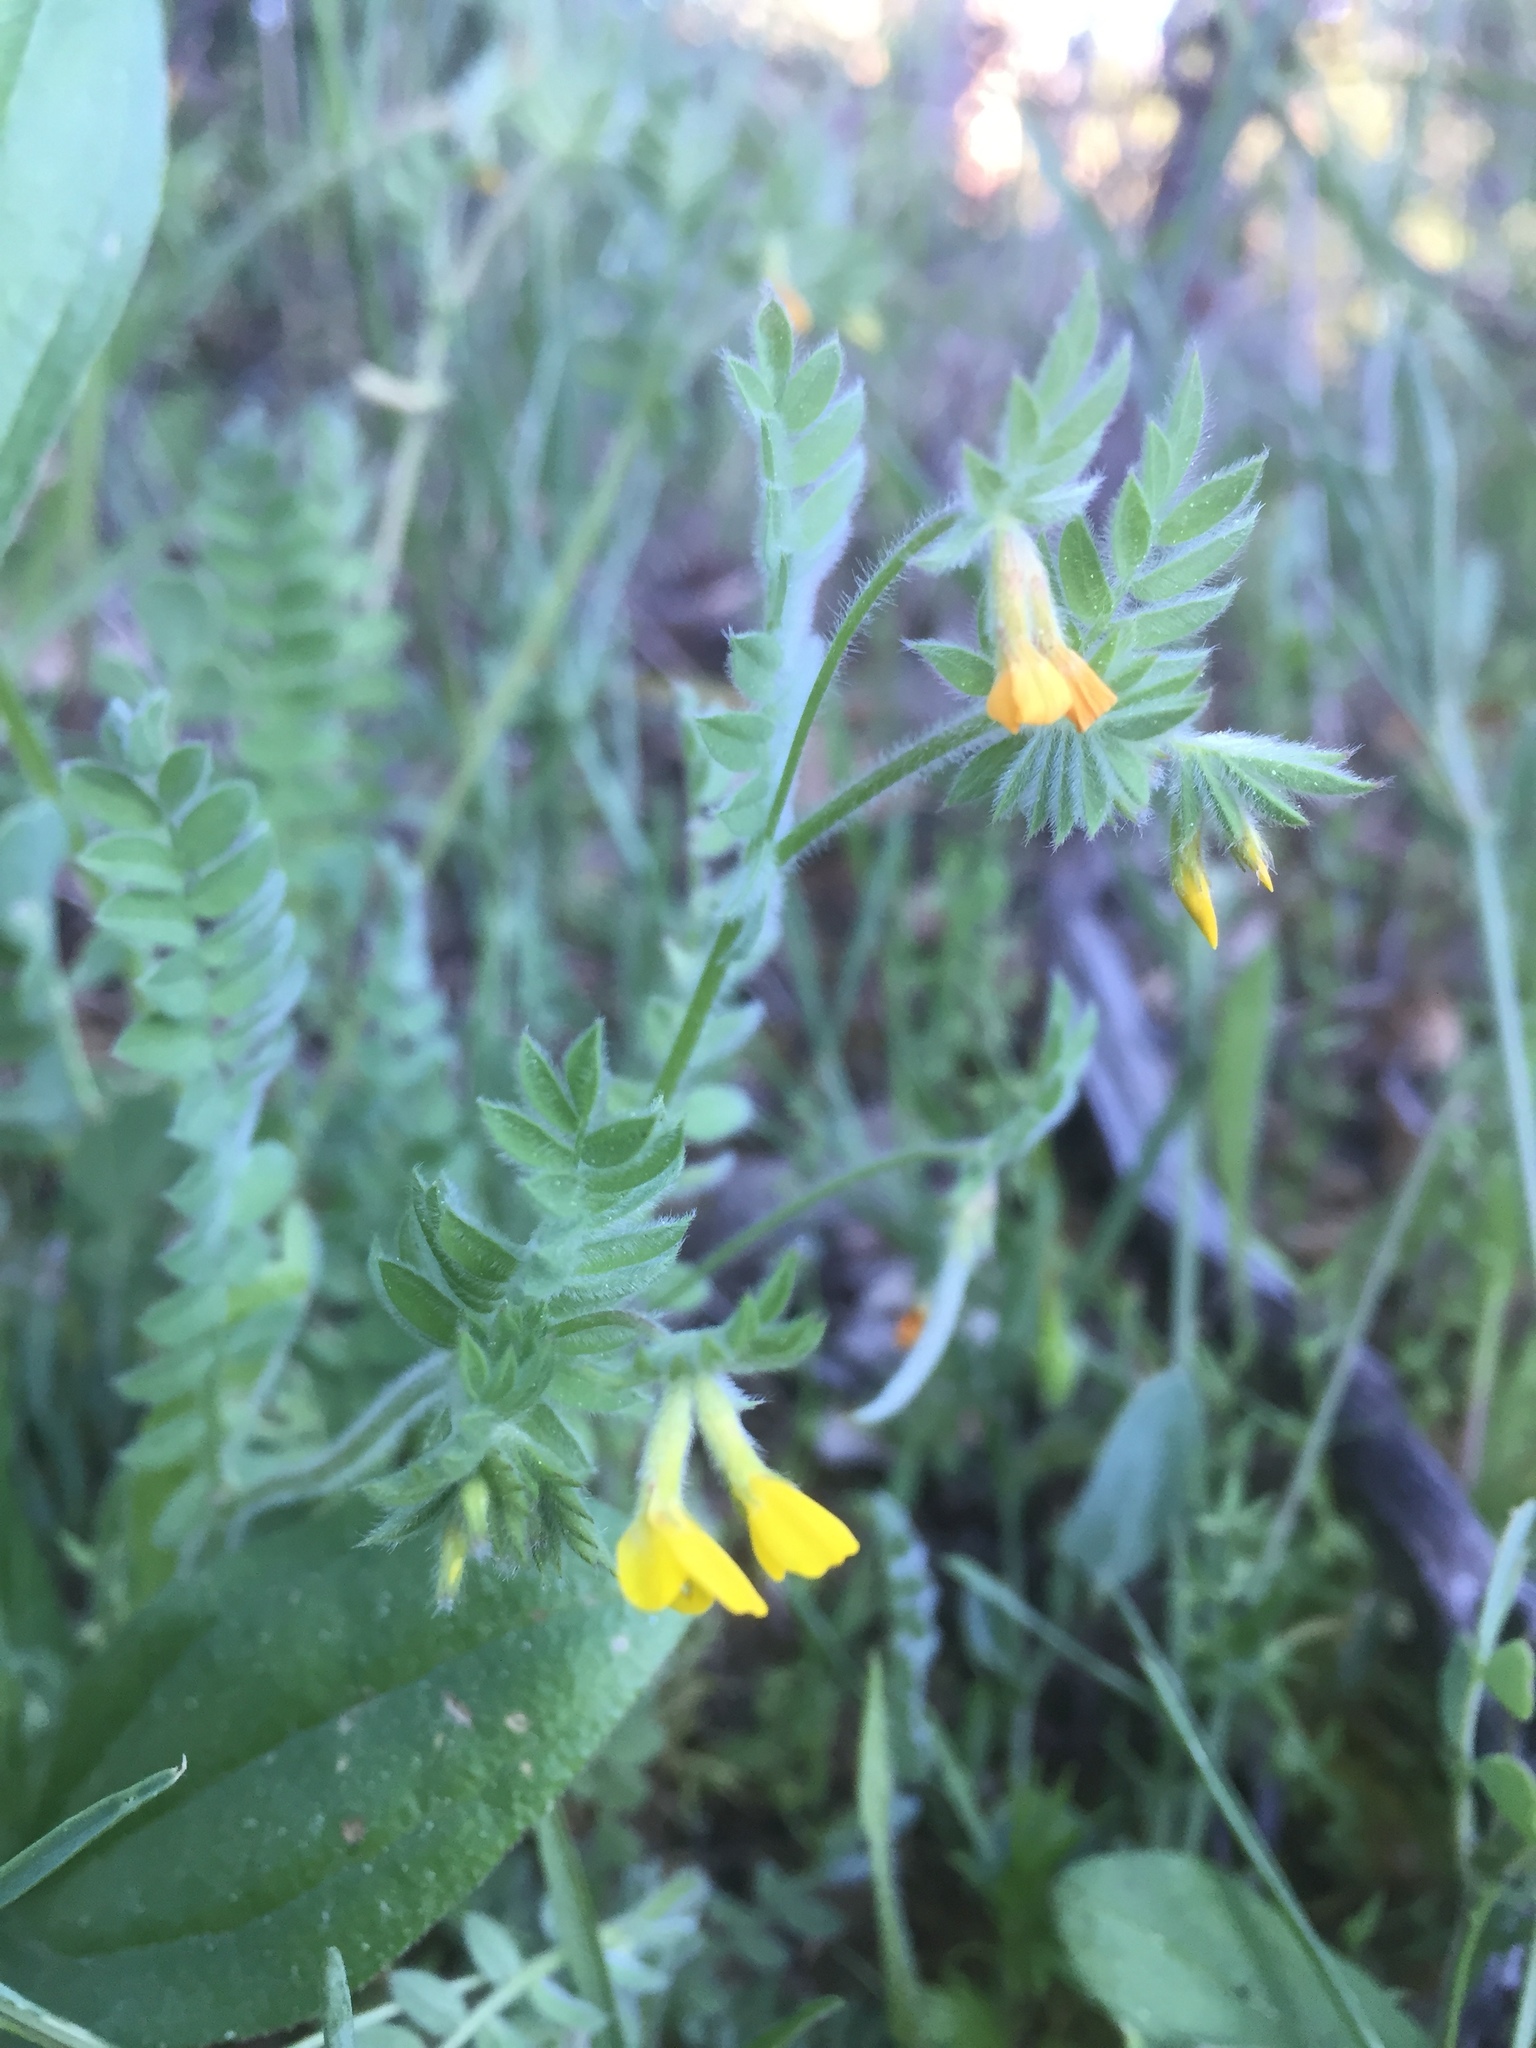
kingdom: Plantae
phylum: Tracheophyta
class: Magnoliopsida
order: Fabales
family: Fabaceae
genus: Ornithopus
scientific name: Ornithopus compressus
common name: Yellow serradella
